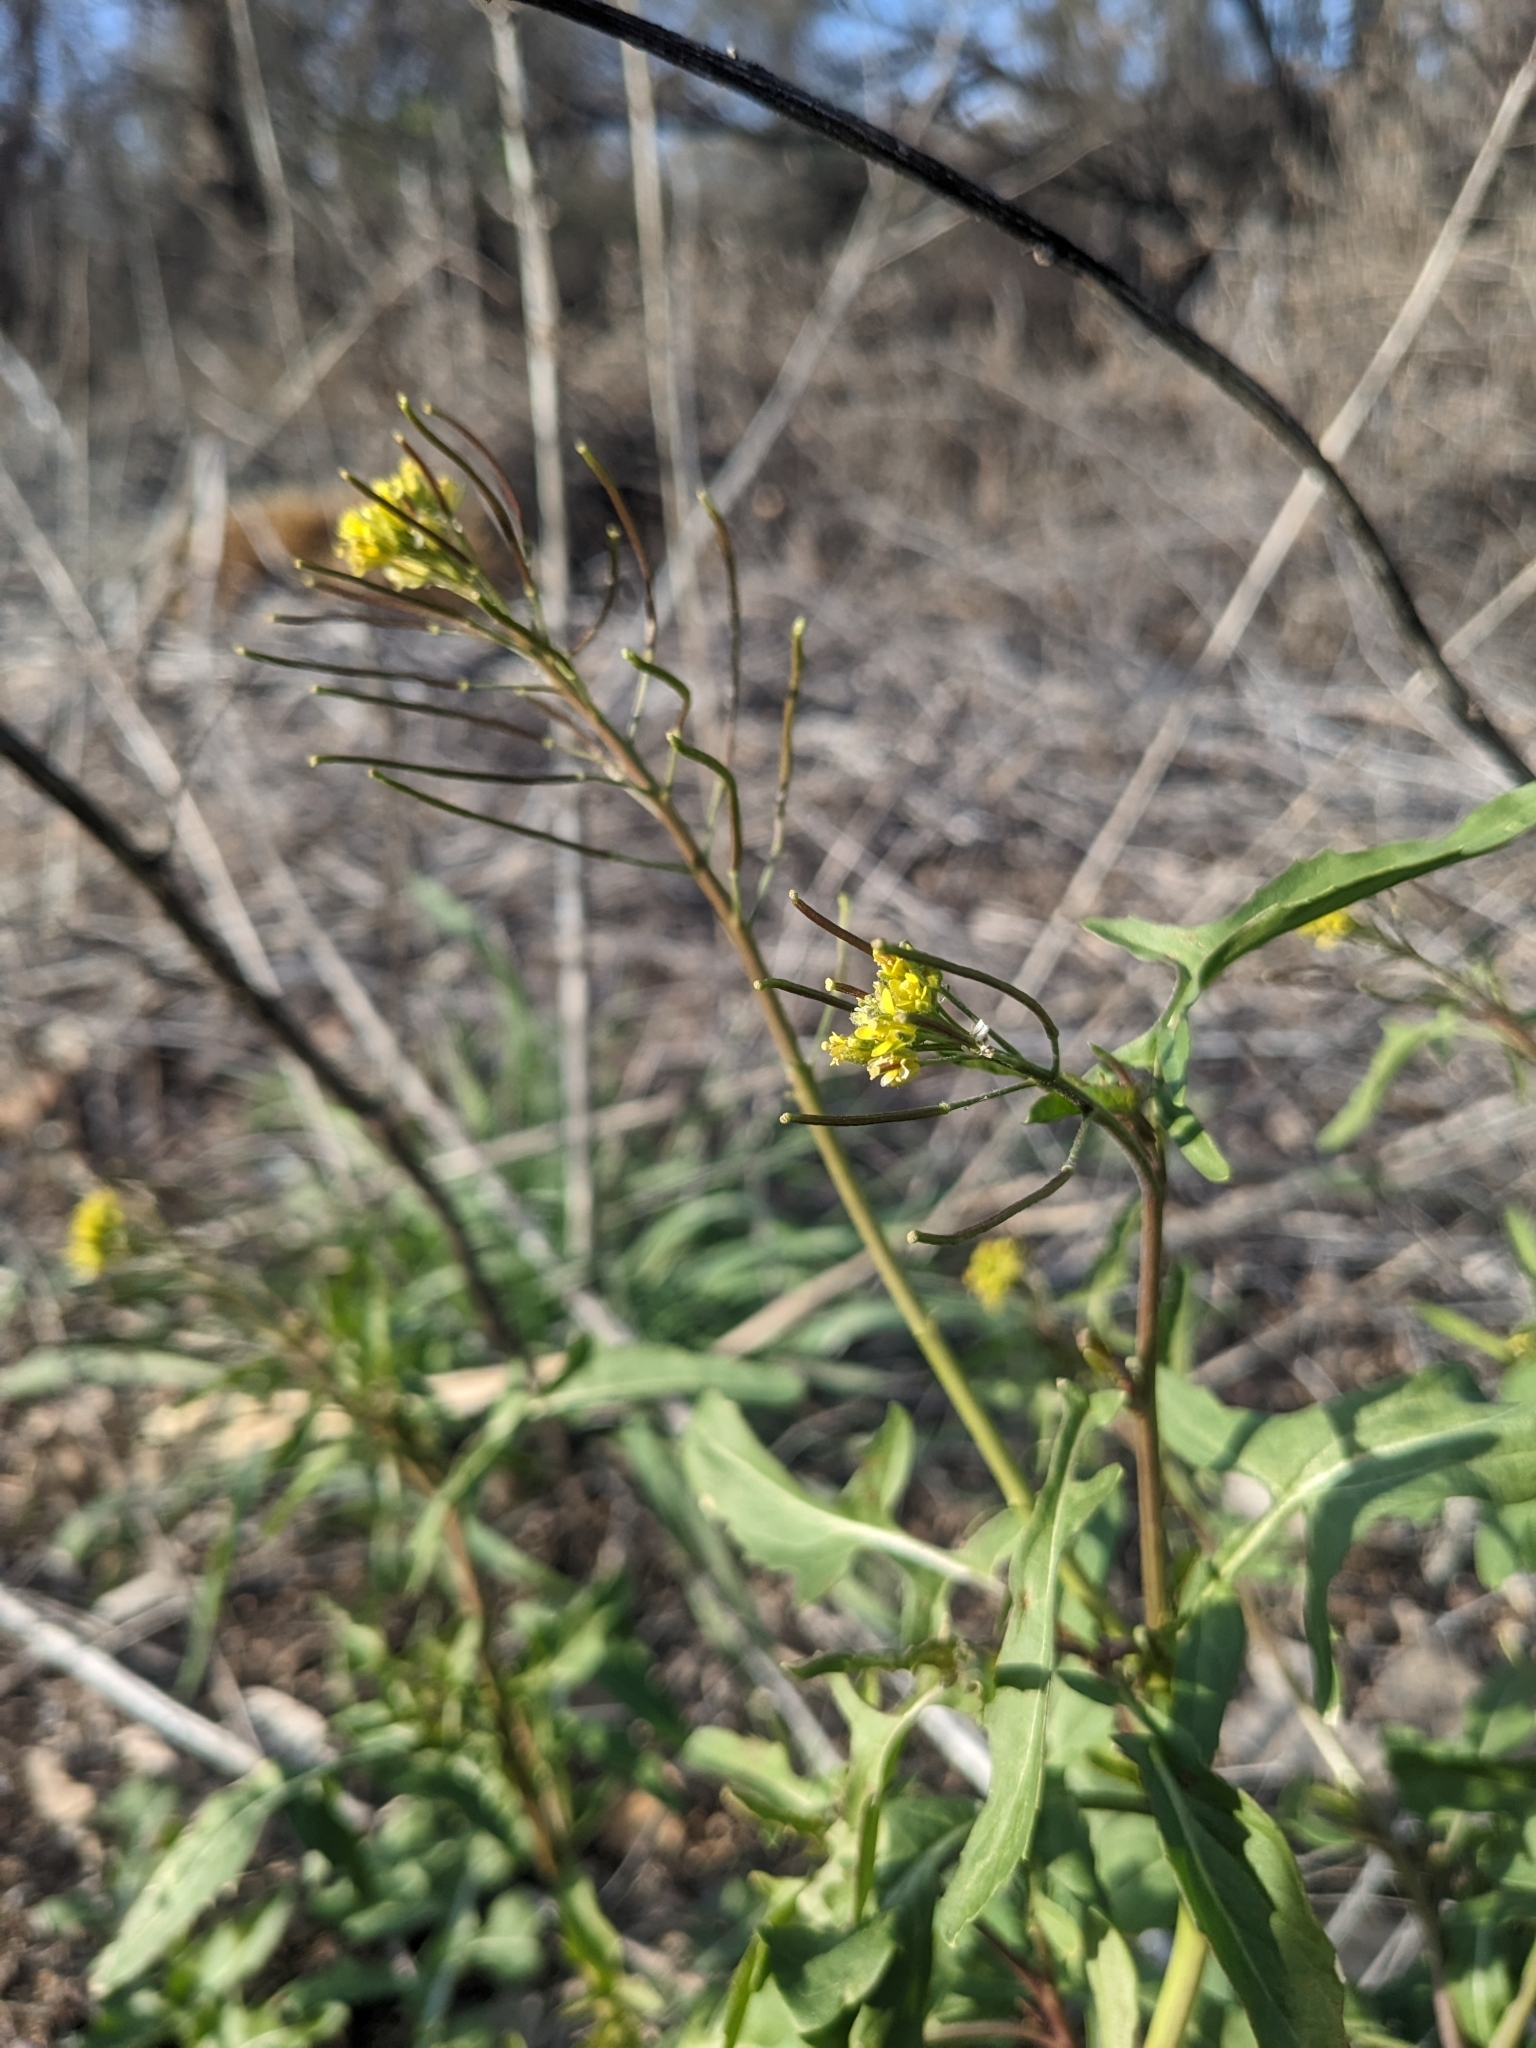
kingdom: Plantae
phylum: Tracheophyta
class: Magnoliopsida
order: Brassicales
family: Brassicaceae
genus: Sisymbrium
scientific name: Sisymbrium irio
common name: London rocket
